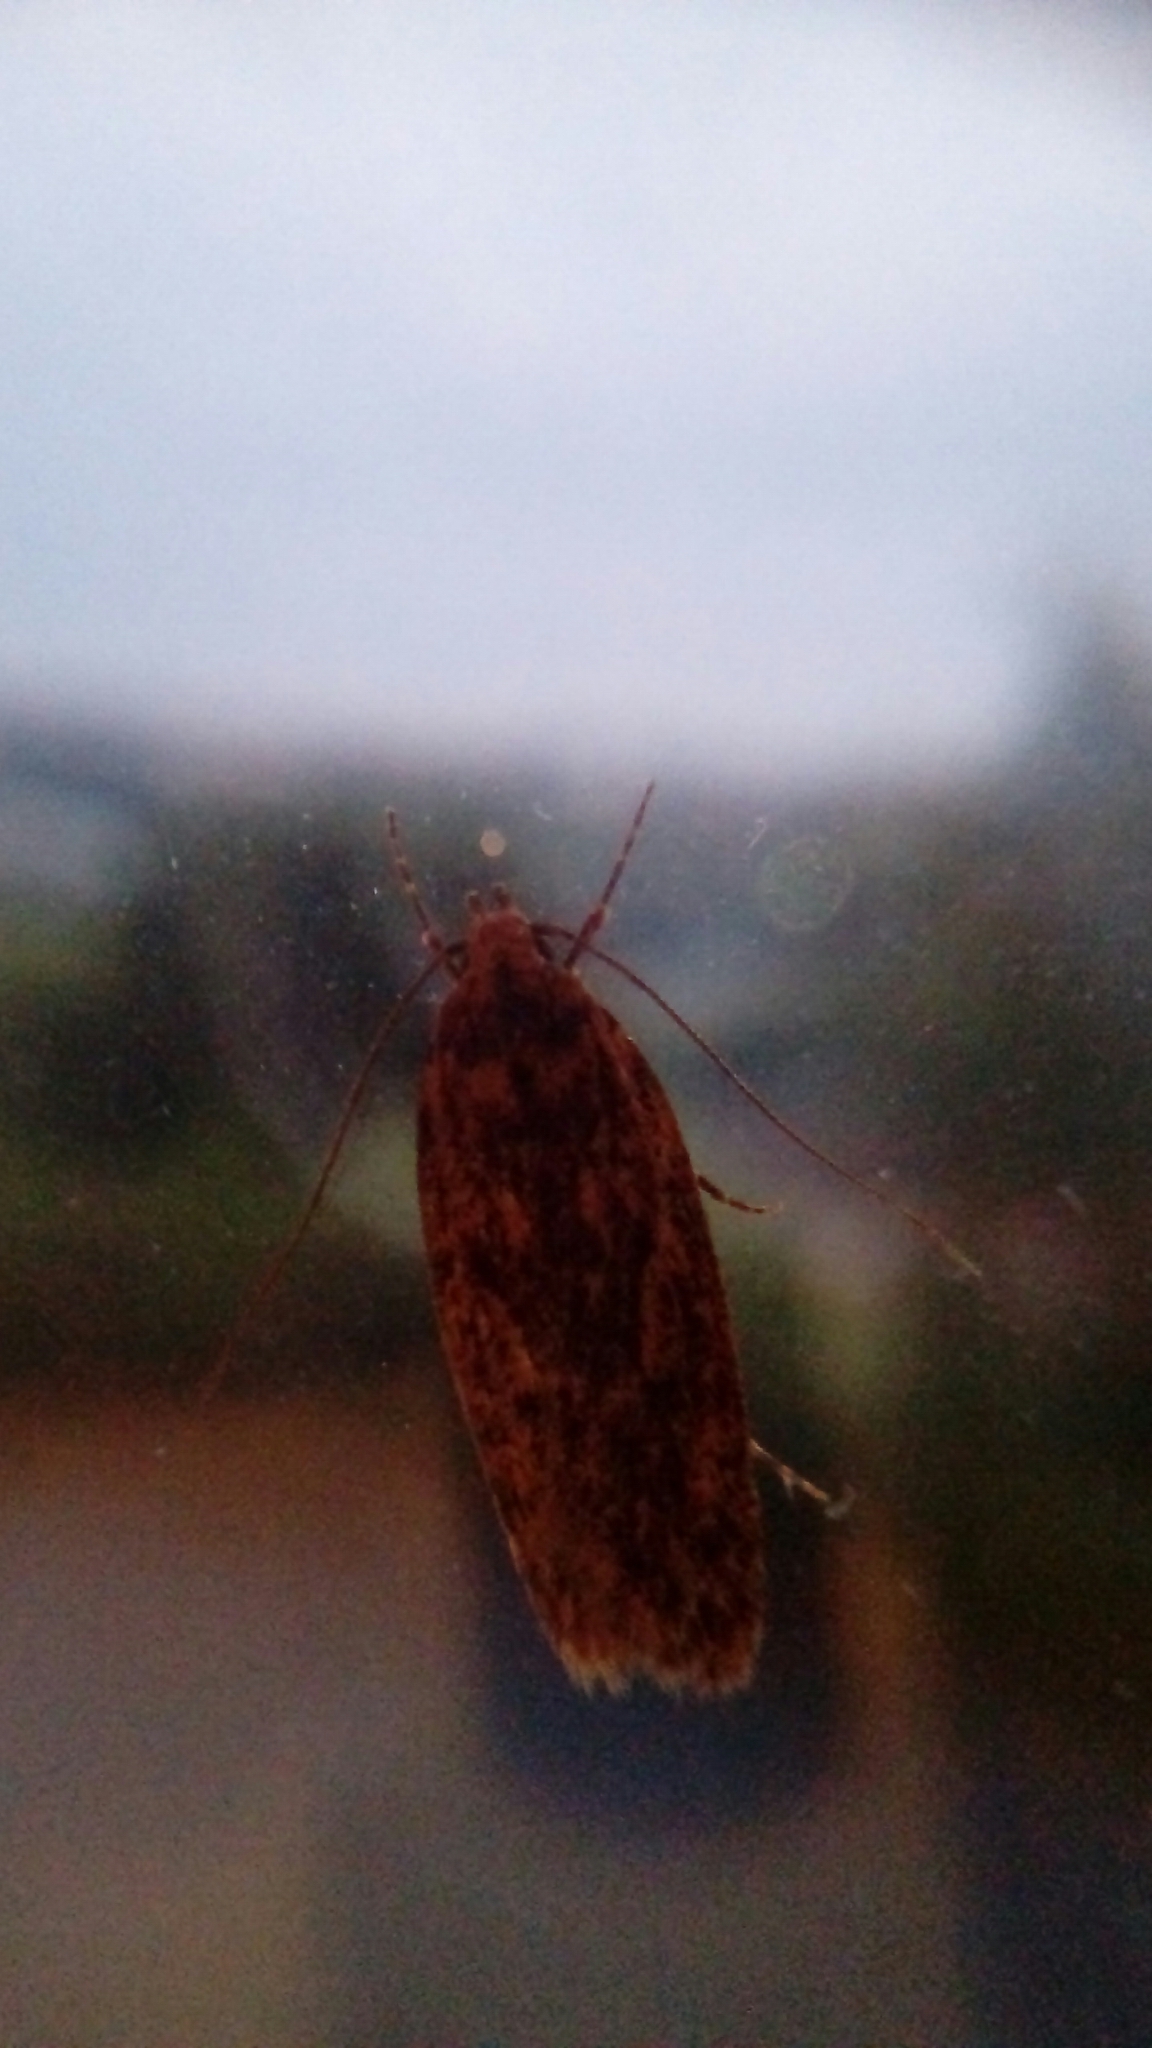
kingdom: Animalia
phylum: Arthropoda
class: Insecta
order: Lepidoptera
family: Oecophoridae
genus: Hofmannophila
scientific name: Hofmannophila pseudospretella
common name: Brown house moth
